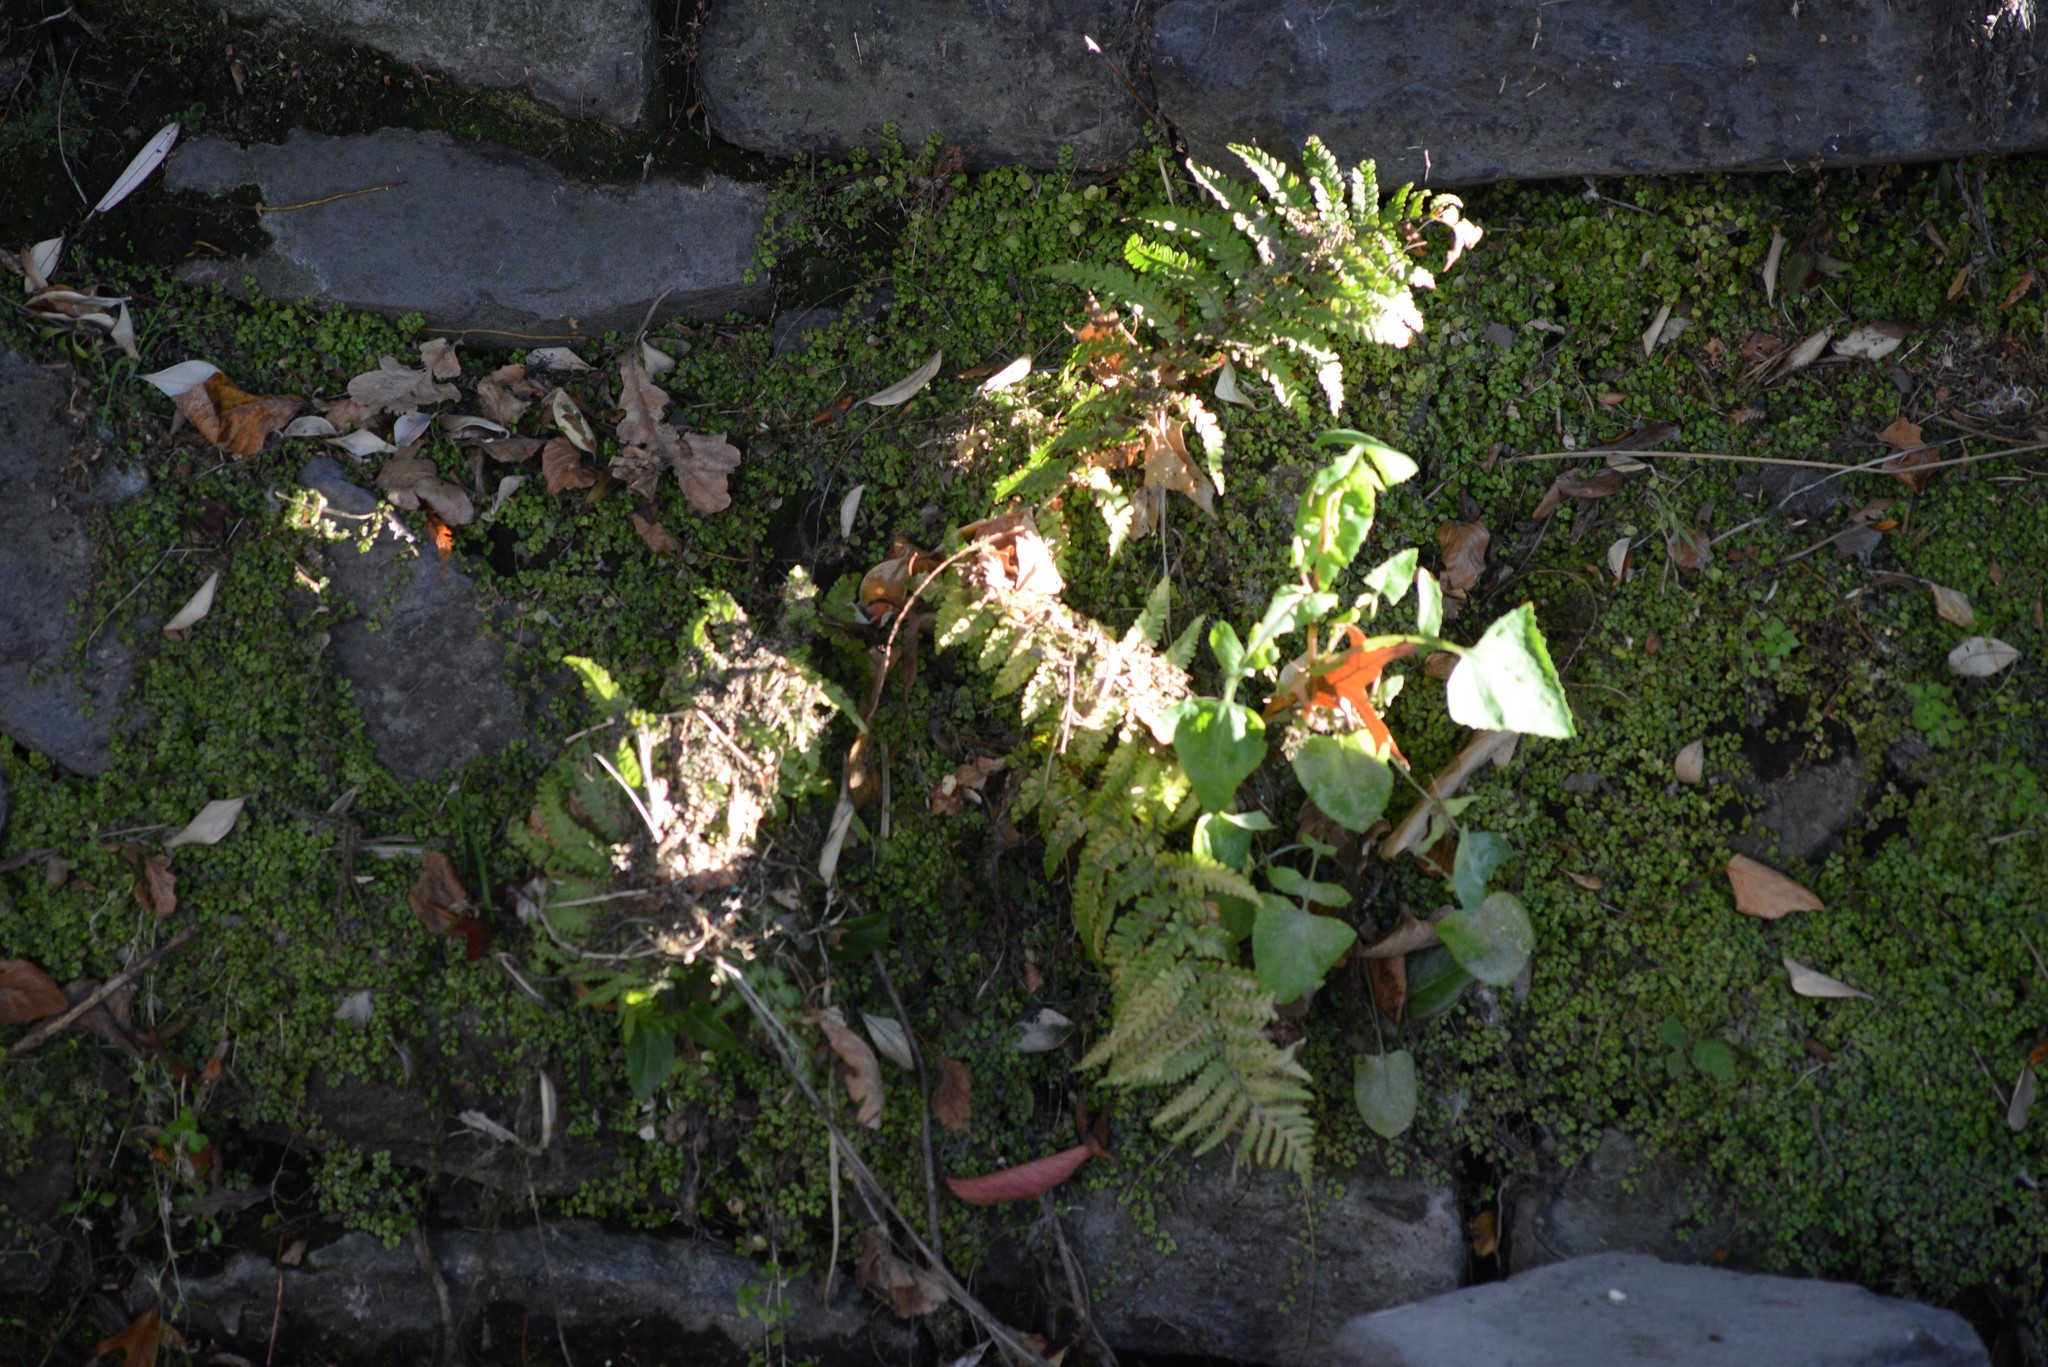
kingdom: Plantae
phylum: Tracheophyta
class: Polypodiopsida
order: Polypodiales
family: Dryopteridaceae
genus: Dryopteris
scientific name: Dryopteris filix-mas
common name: Male fern
